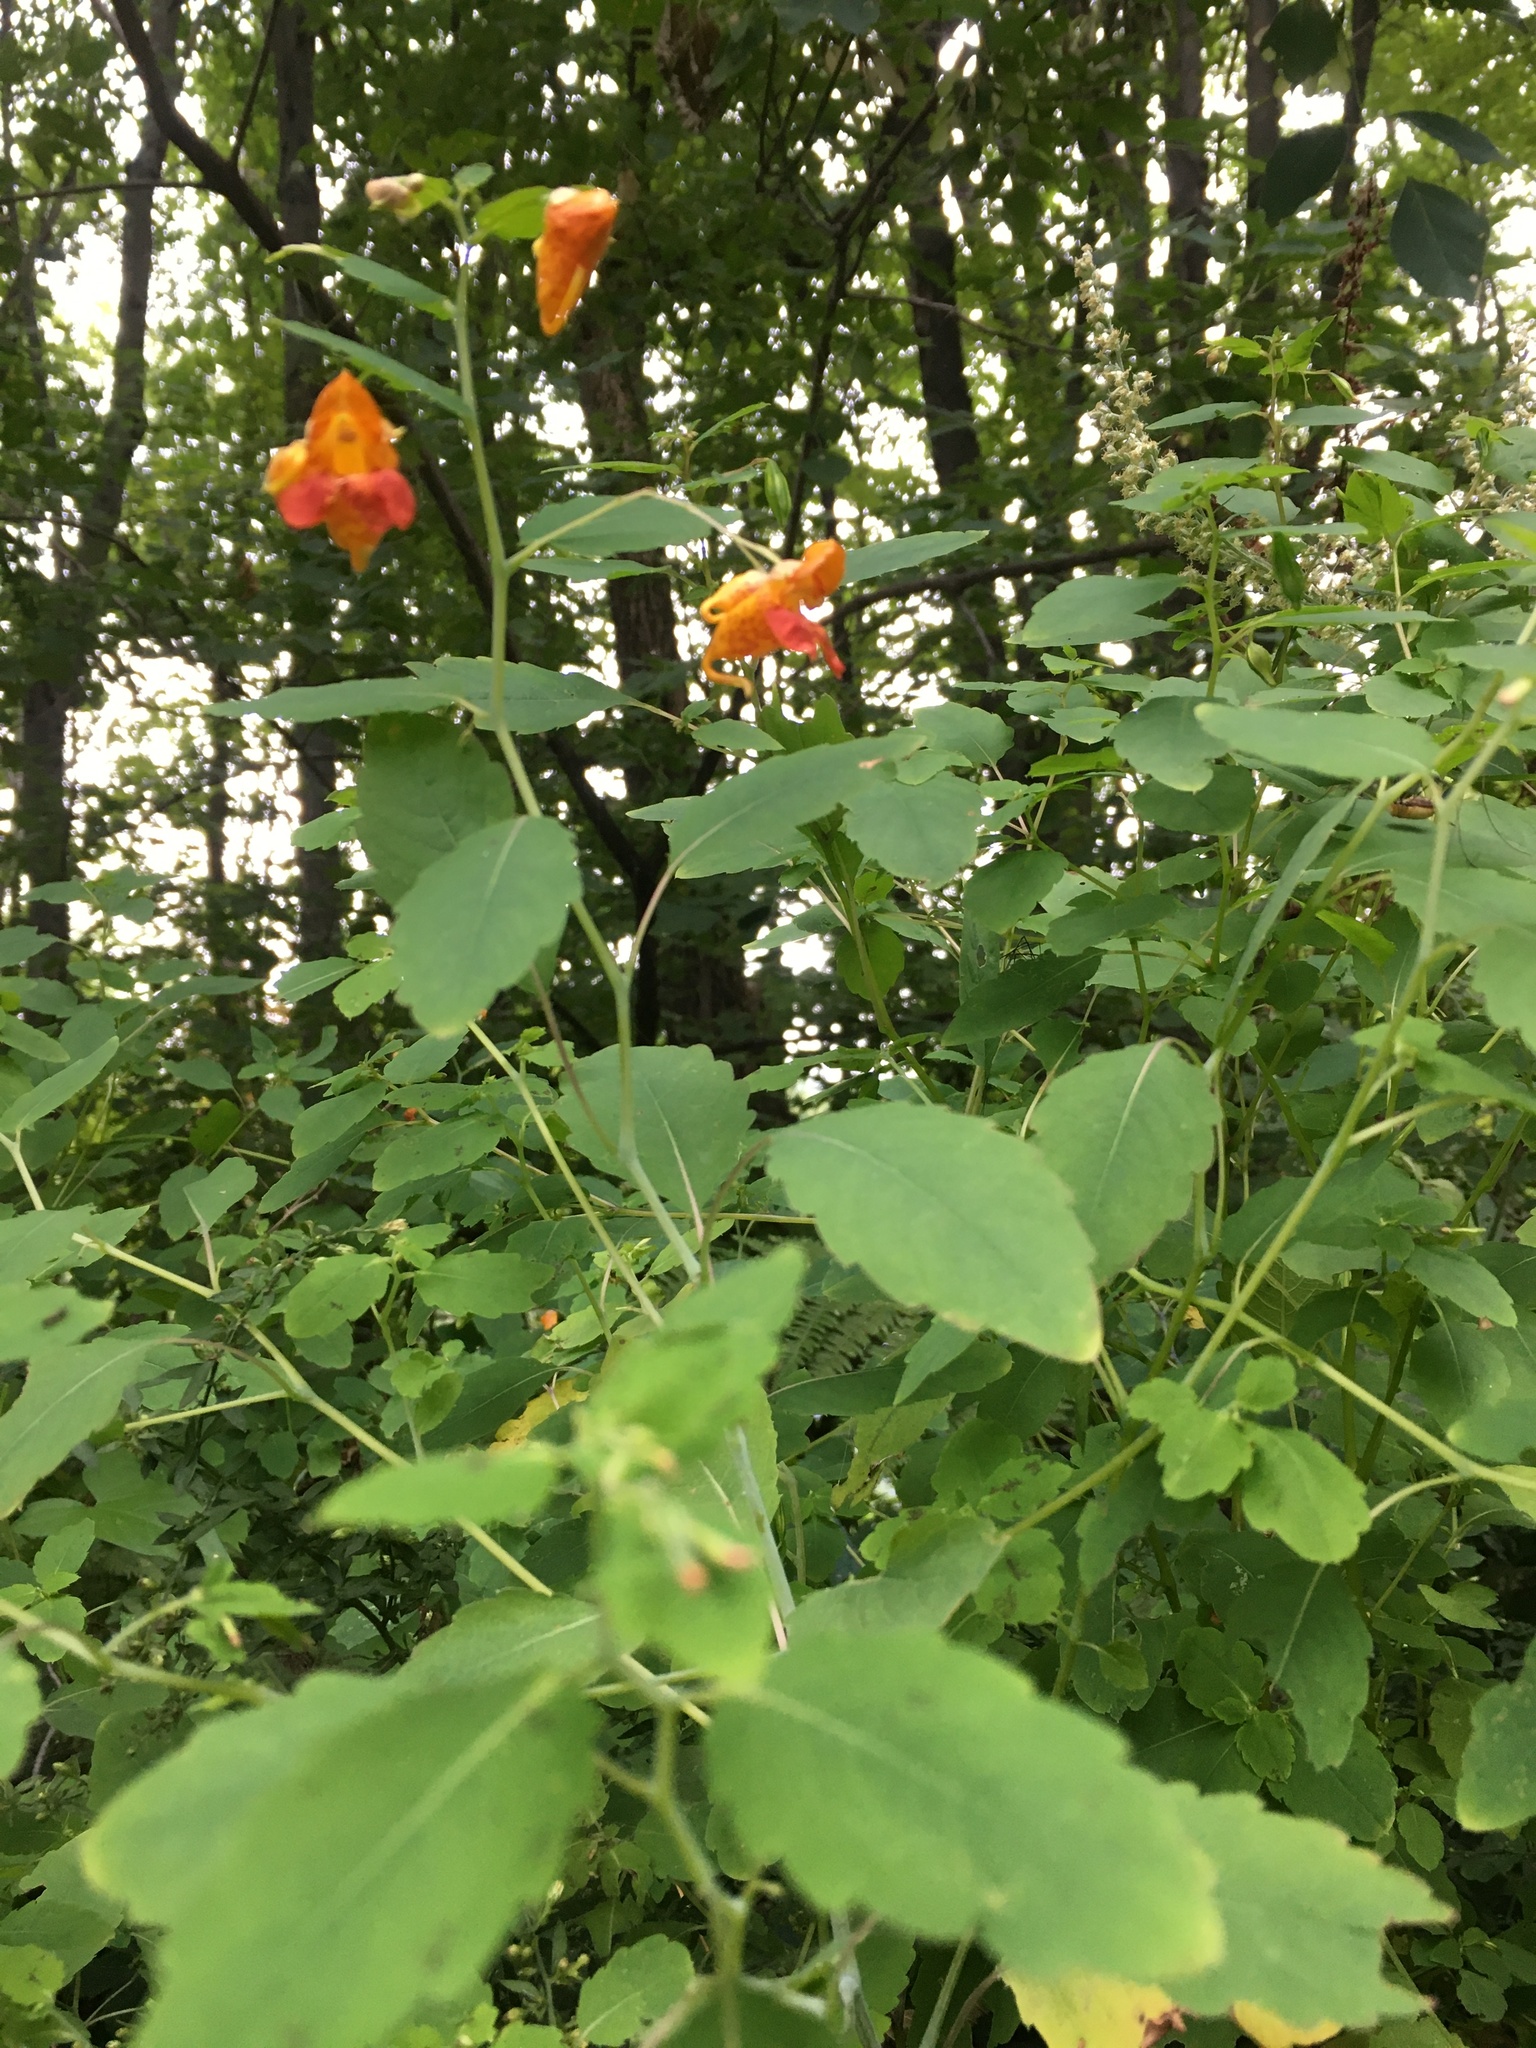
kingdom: Plantae
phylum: Tracheophyta
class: Magnoliopsida
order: Ericales
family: Balsaminaceae
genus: Impatiens
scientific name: Impatiens capensis
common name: Orange balsam
